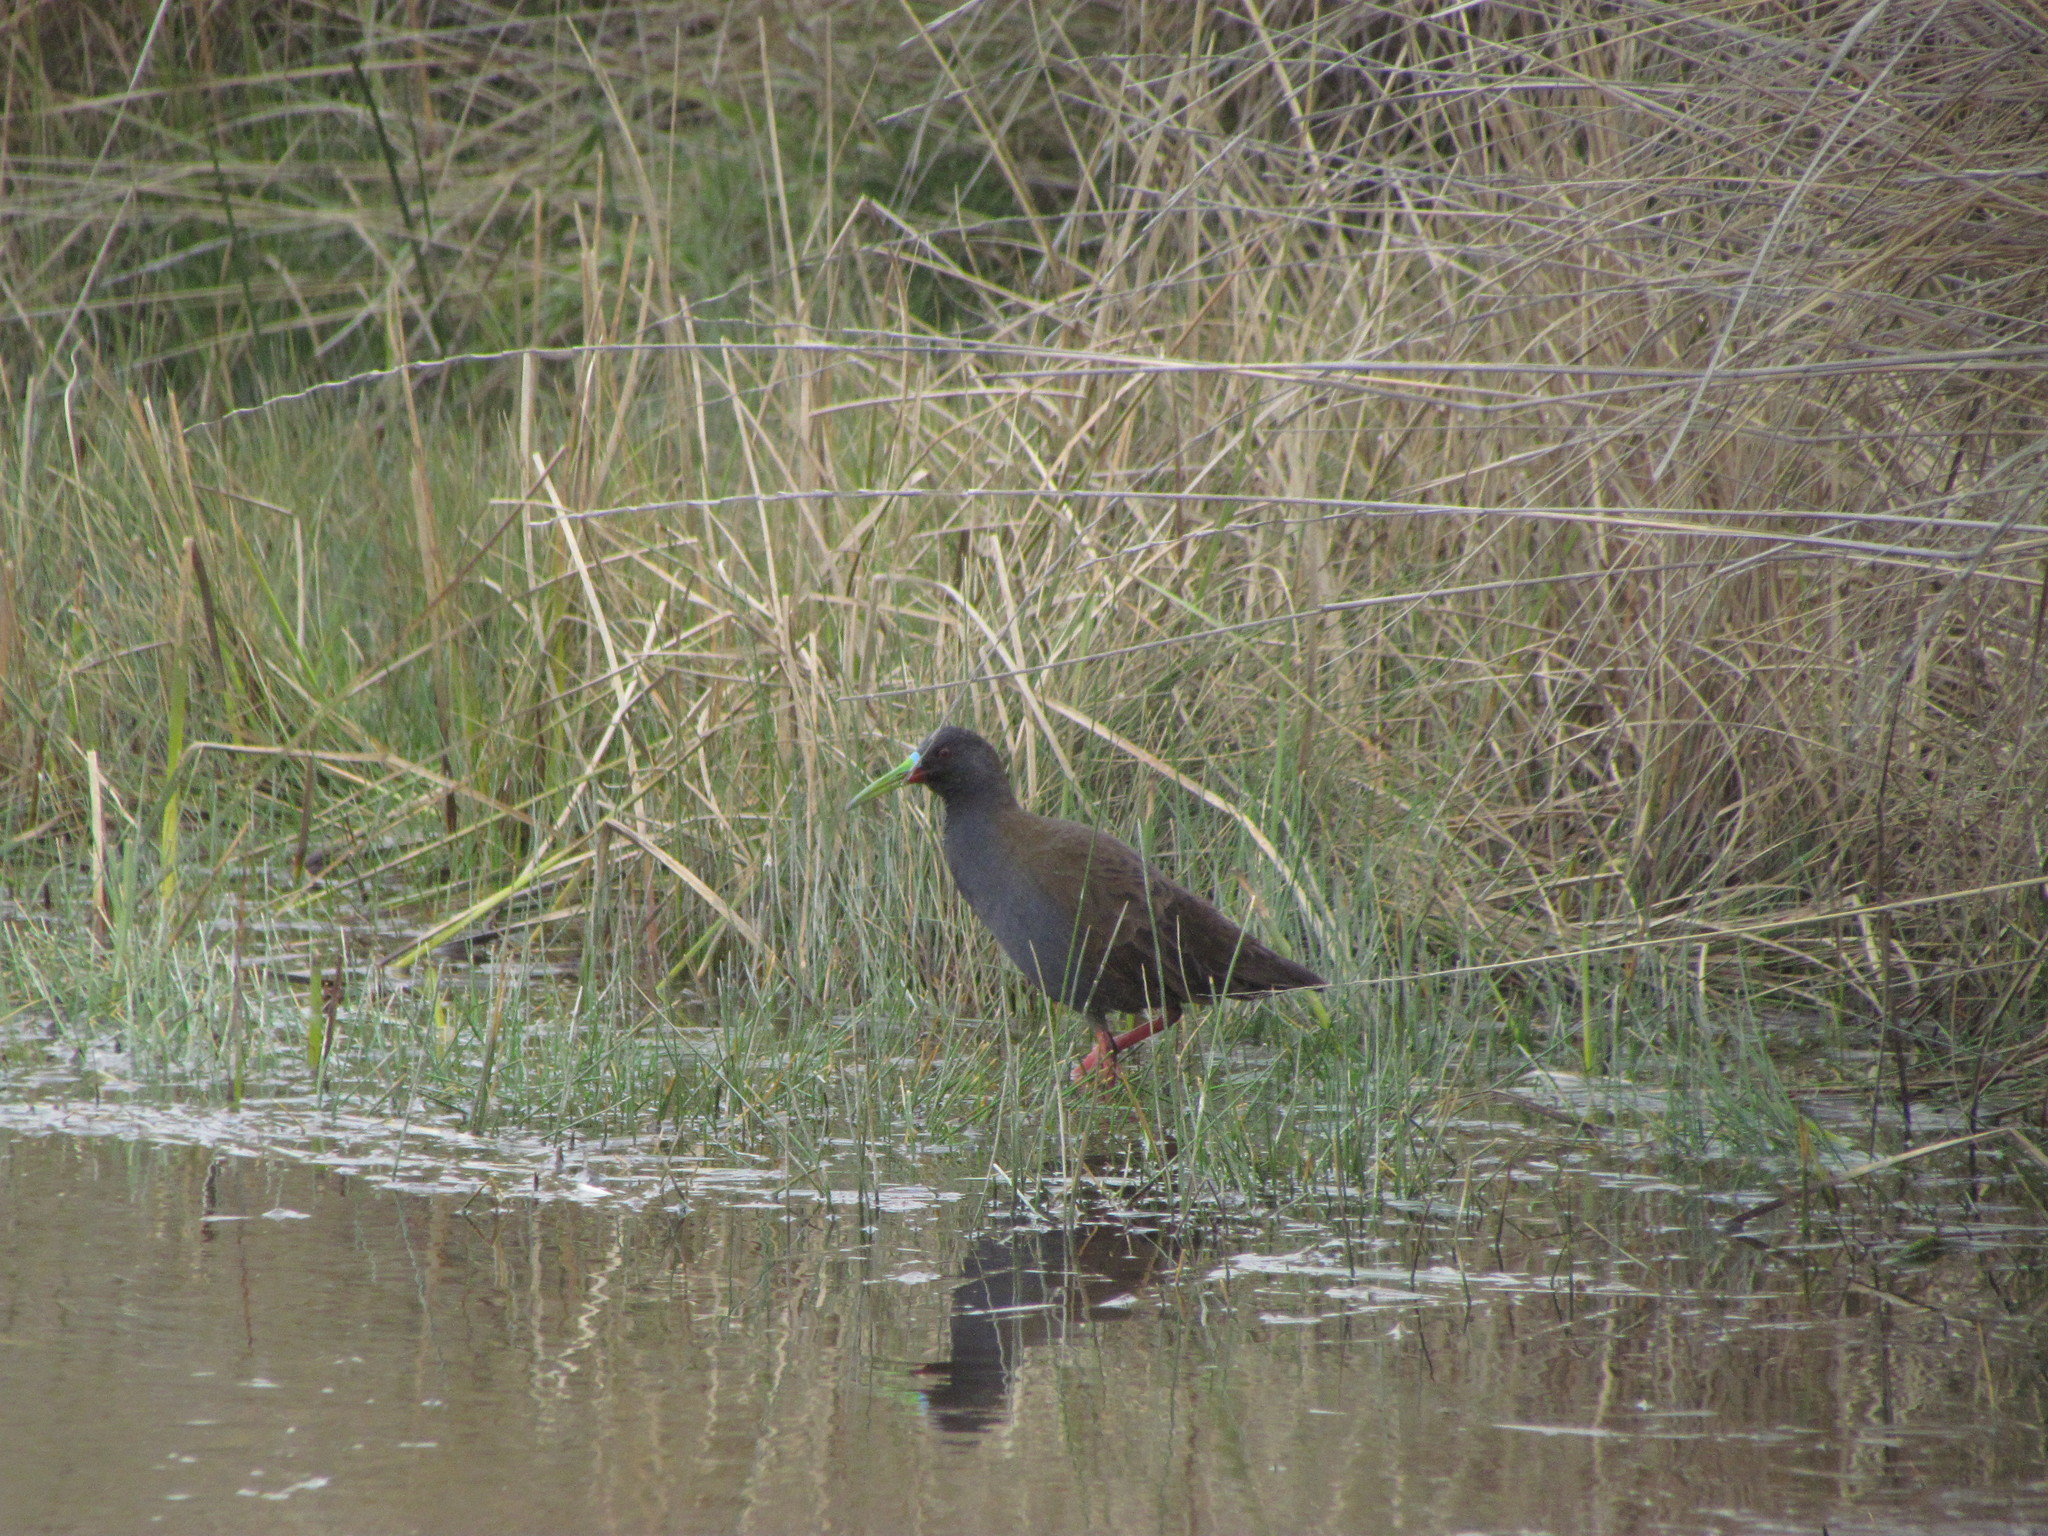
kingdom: Animalia
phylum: Chordata
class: Aves
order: Gruiformes
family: Rallidae
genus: Pardirallus
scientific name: Pardirallus sanguinolentus
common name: Plumbeous rail
